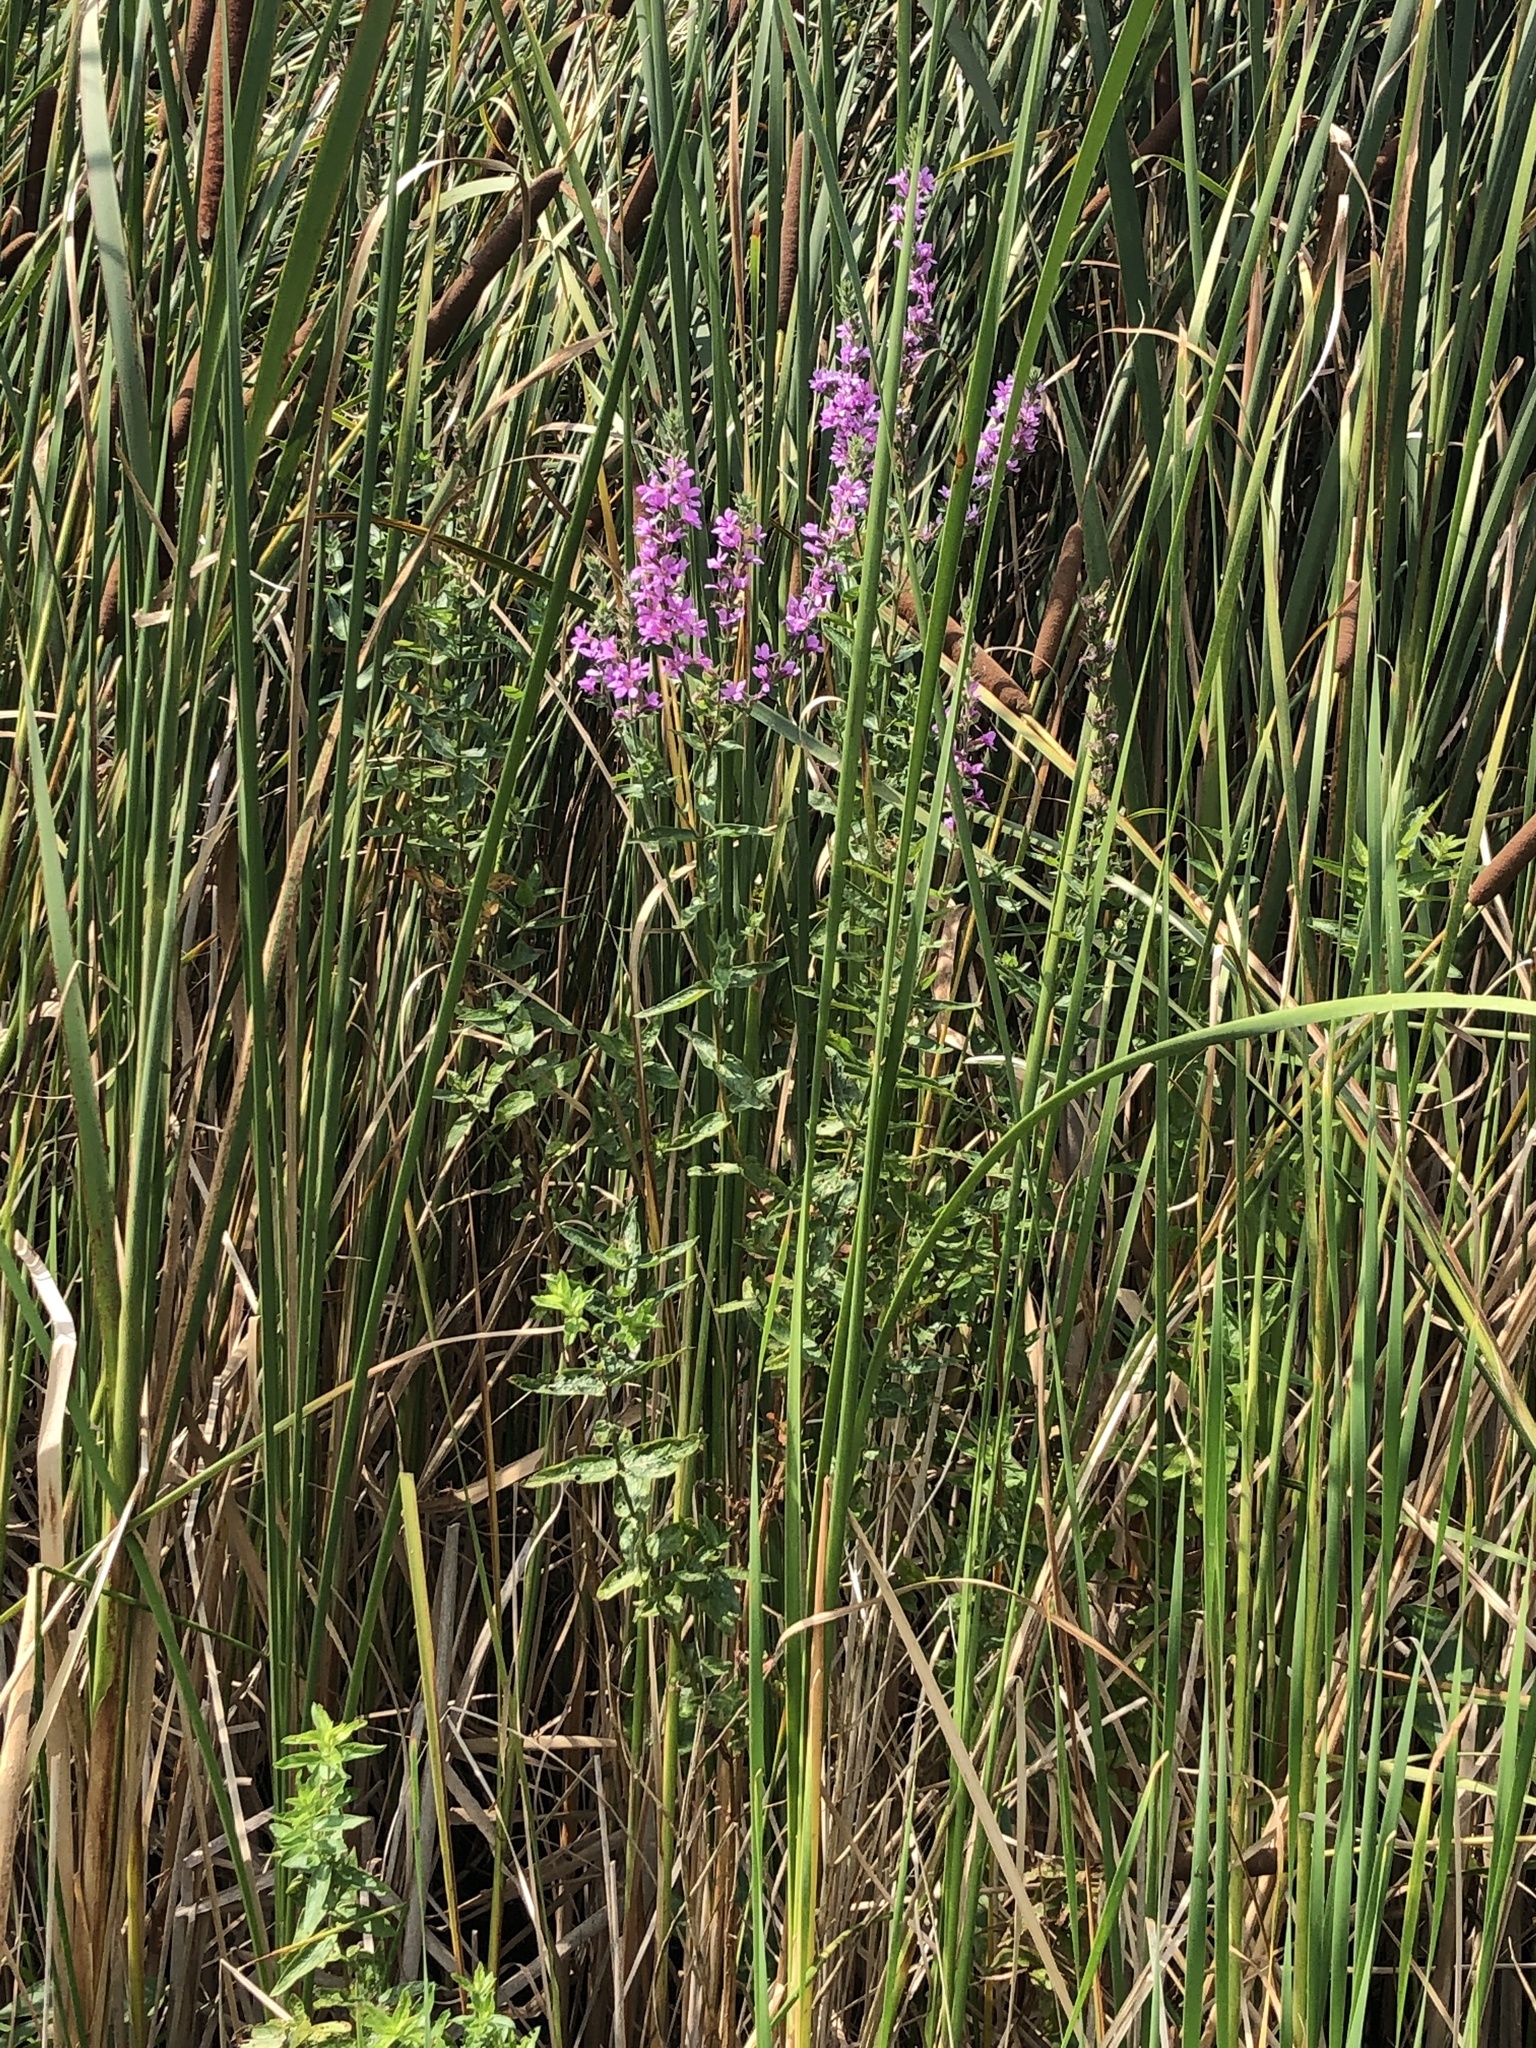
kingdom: Plantae
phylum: Tracheophyta
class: Magnoliopsida
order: Myrtales
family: Lythraceae
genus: Lythrum
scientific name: Lythrum salicaria
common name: Purple loosestrife
